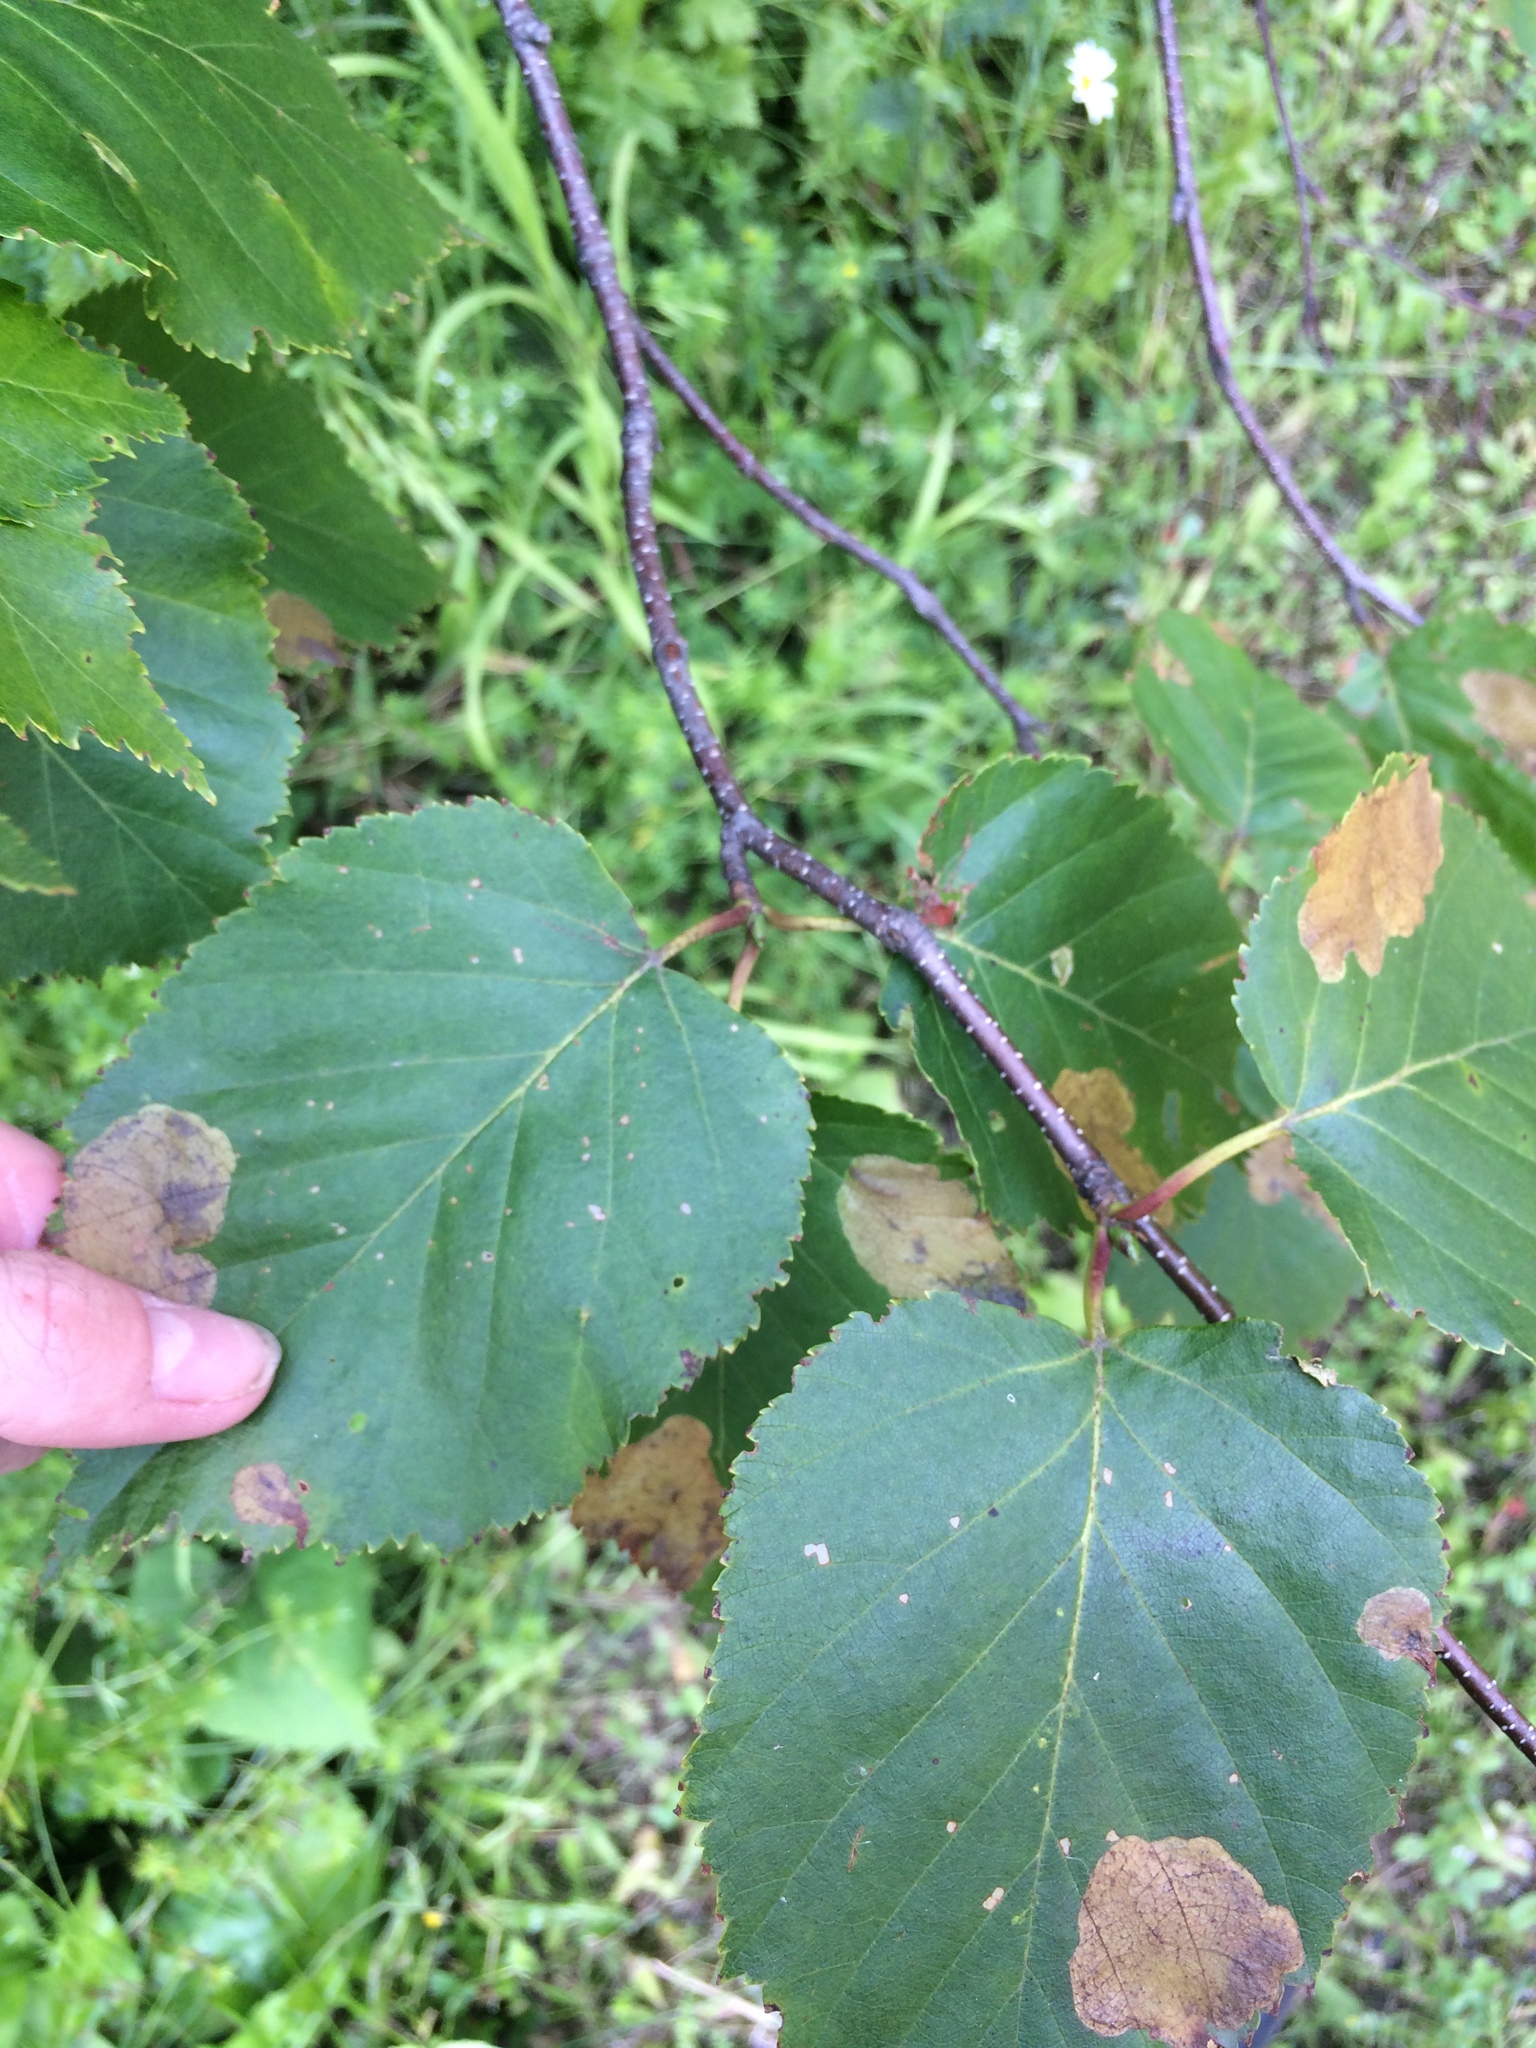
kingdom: Plantae
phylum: Tracheophyta
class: Magnoliopsida
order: Fagales
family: Betulaceae
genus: Betula
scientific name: Betula cordifolia
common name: Mountain white birch
